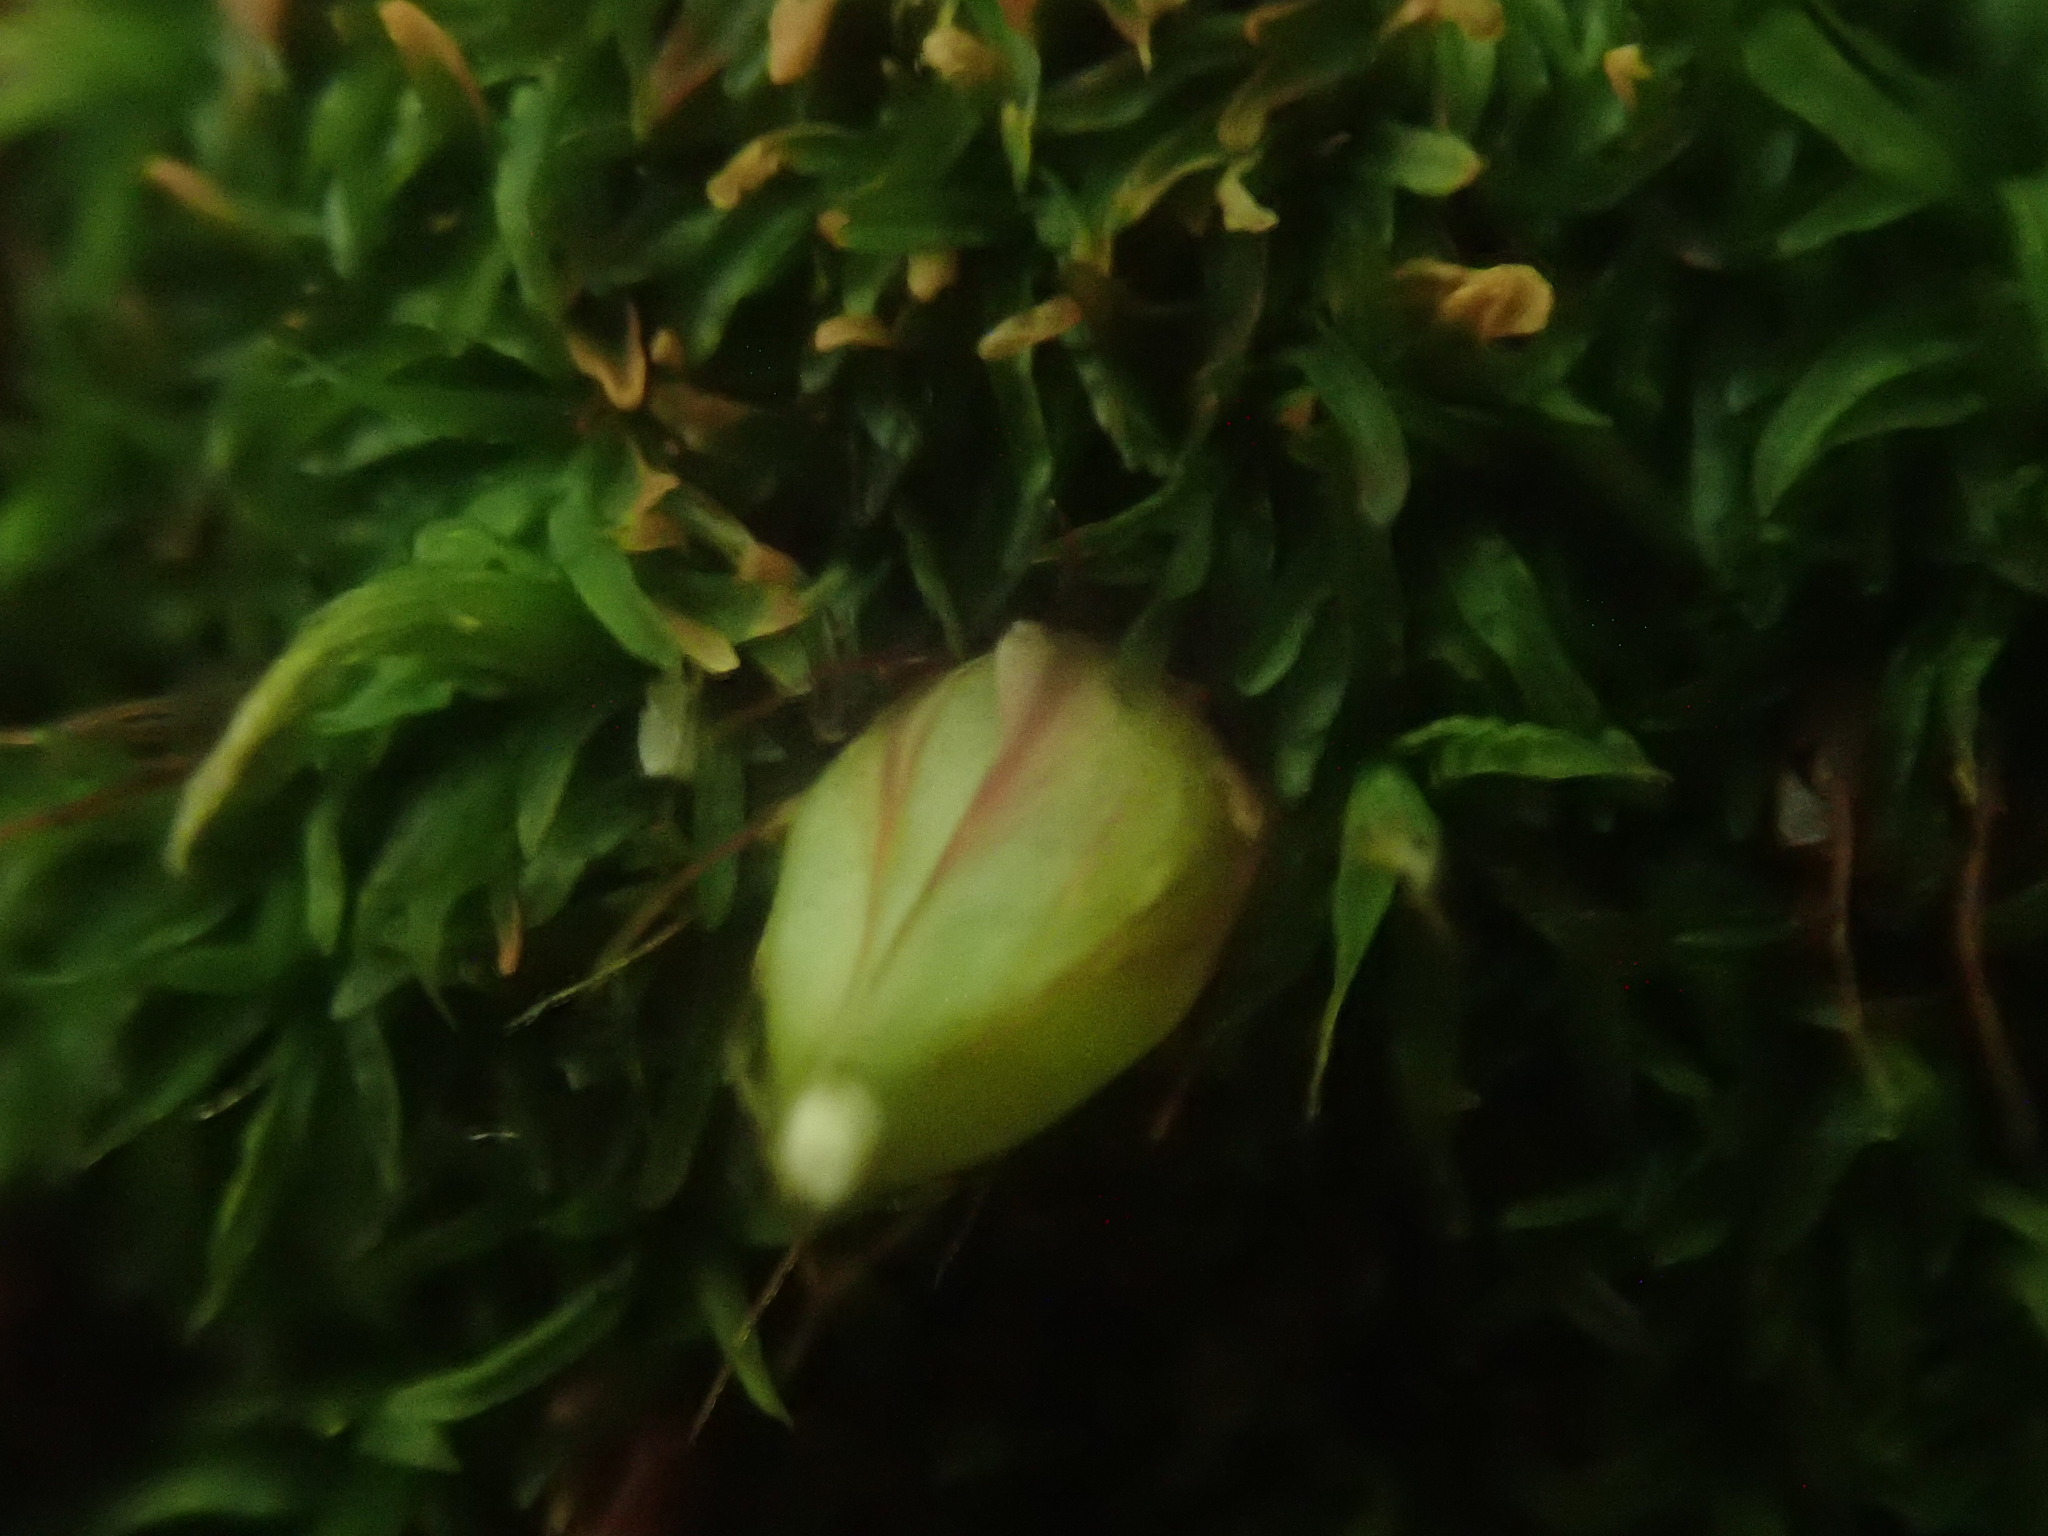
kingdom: Plantae
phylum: Bryophyta
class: Bryopsida
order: Diphysciales
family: Diphysciaceae
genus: Diphyscium
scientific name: Diphyscium foliosum
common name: Nut moss
